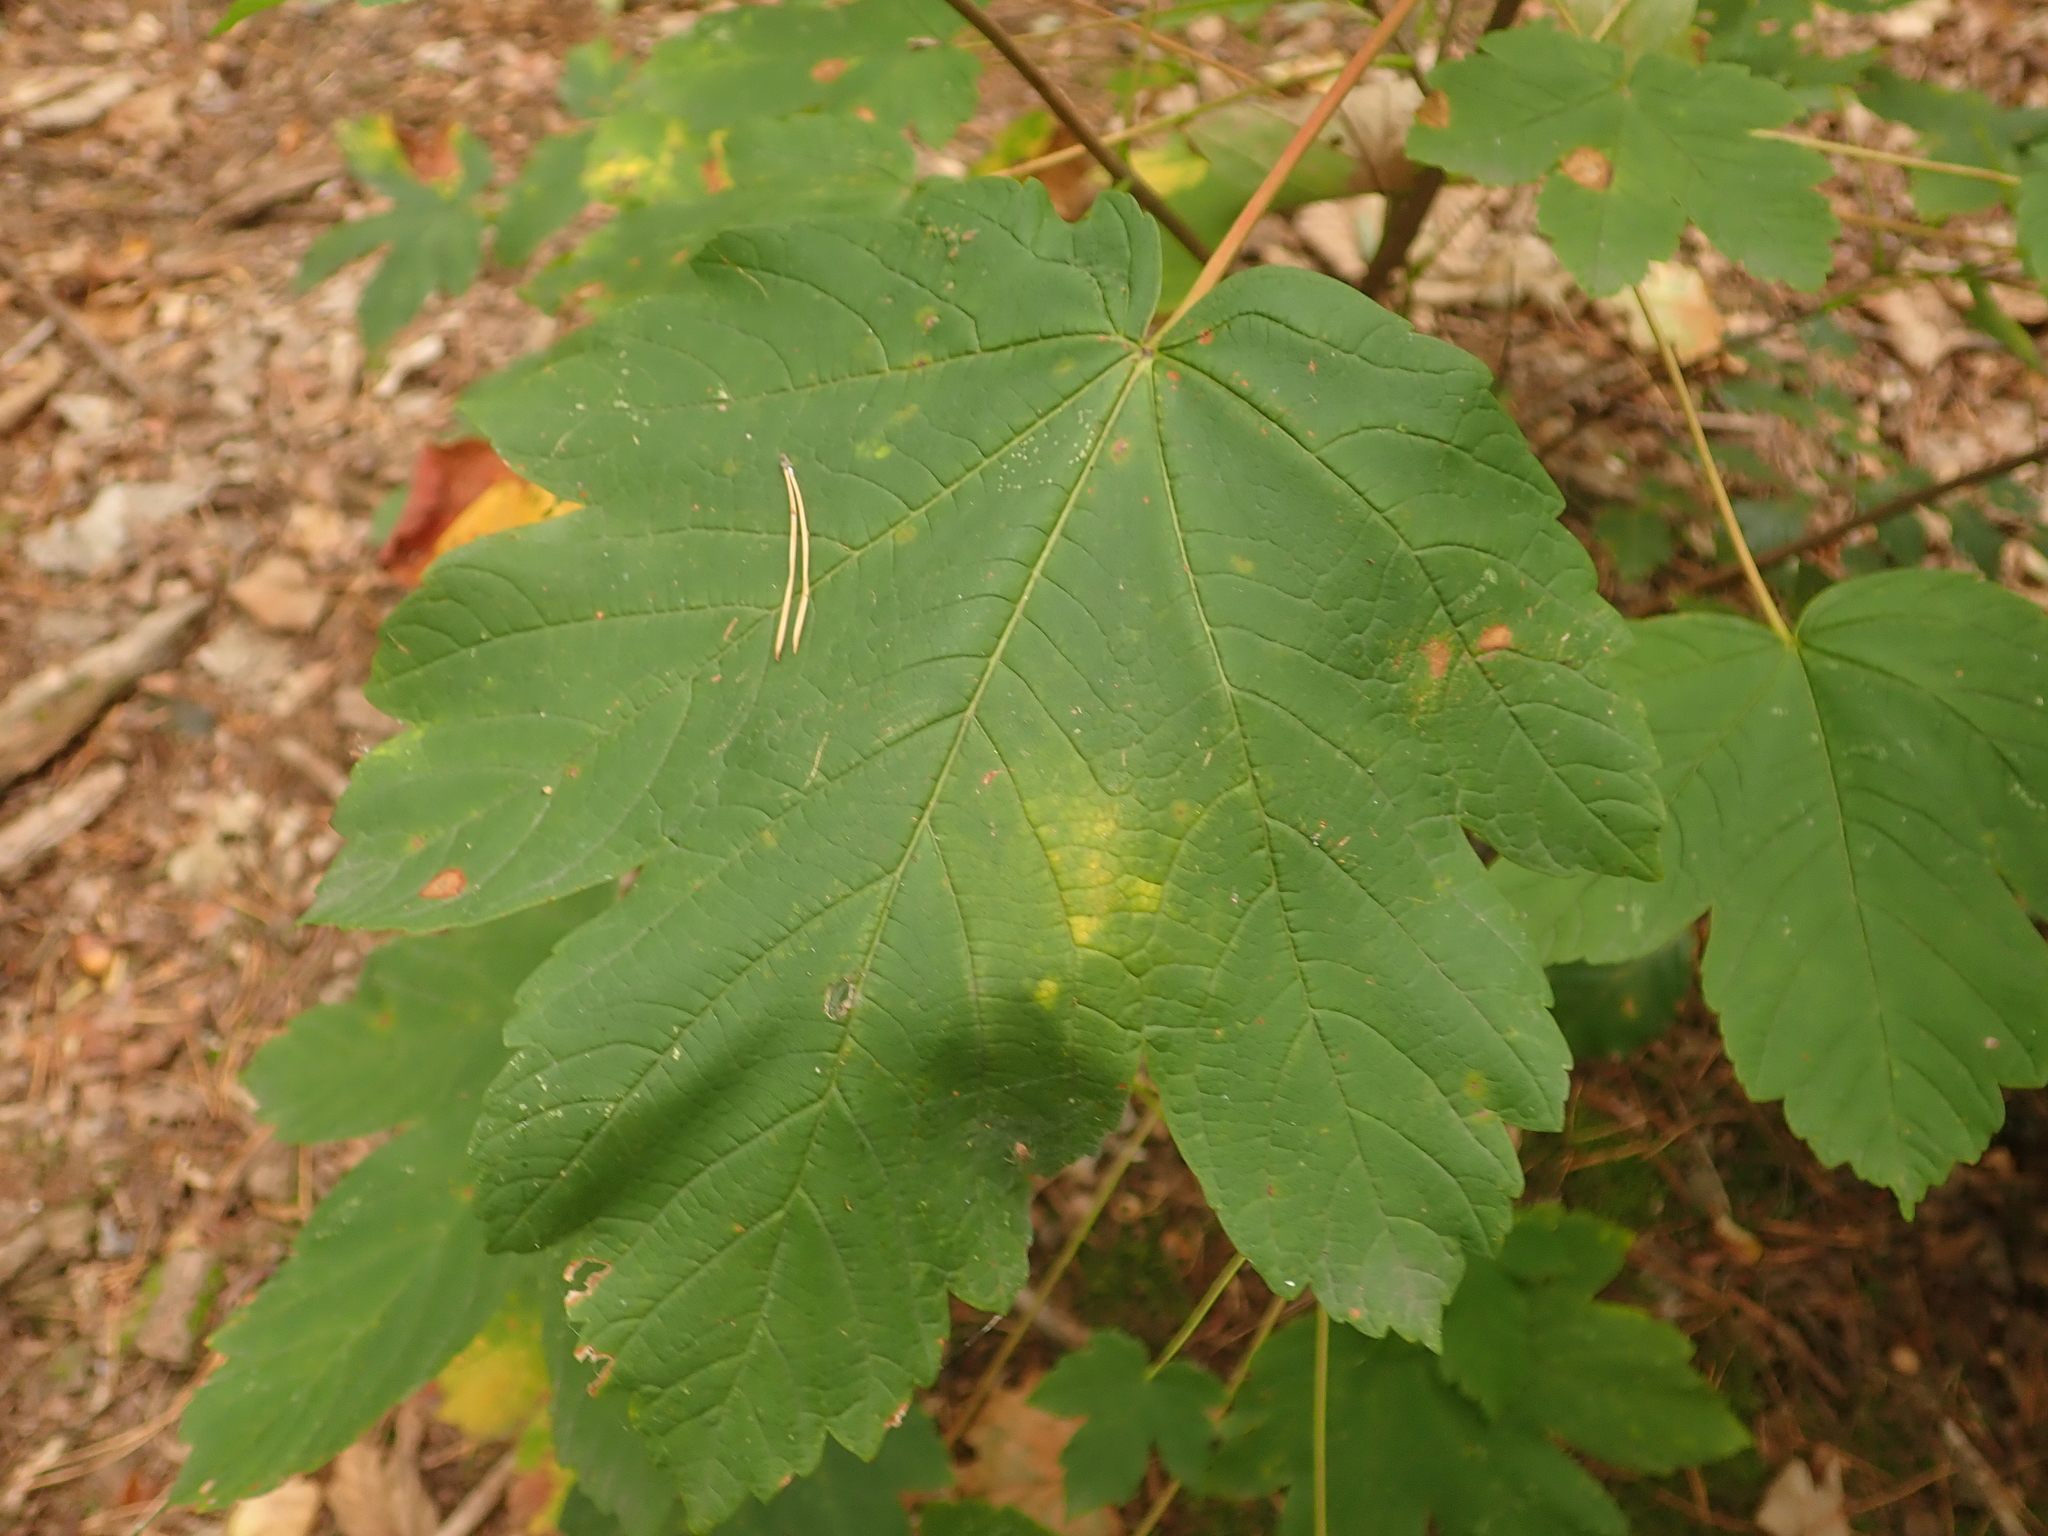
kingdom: Plantae
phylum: Tracheophyta
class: Magnoliopsida
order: Sapindales
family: Sapindaceae
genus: Acer
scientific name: Acer pseudoplatanus
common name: Sycamore
